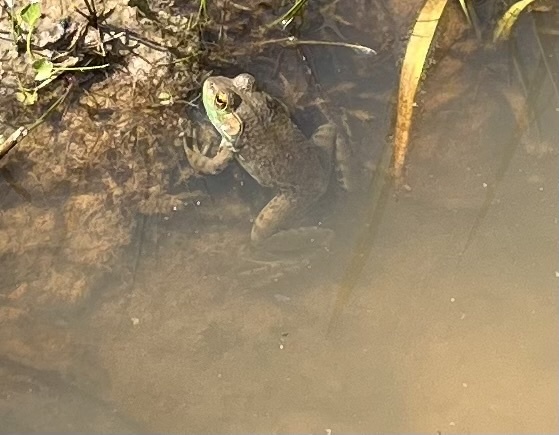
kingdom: Animalia
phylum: Chordata
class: Amphibia
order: Anura
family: Ranidae
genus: Lithobates
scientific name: Lithobates catesbeianus
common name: American bullfrog
